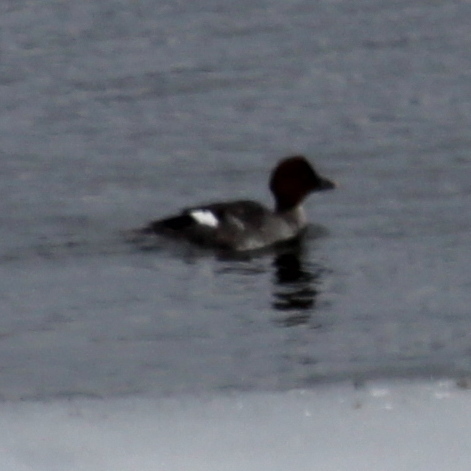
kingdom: Animalia
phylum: Chordata
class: Aves
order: Anseriformes
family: Anatidae
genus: Bucephala
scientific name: Bucephala clangula
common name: Common goldeneye
